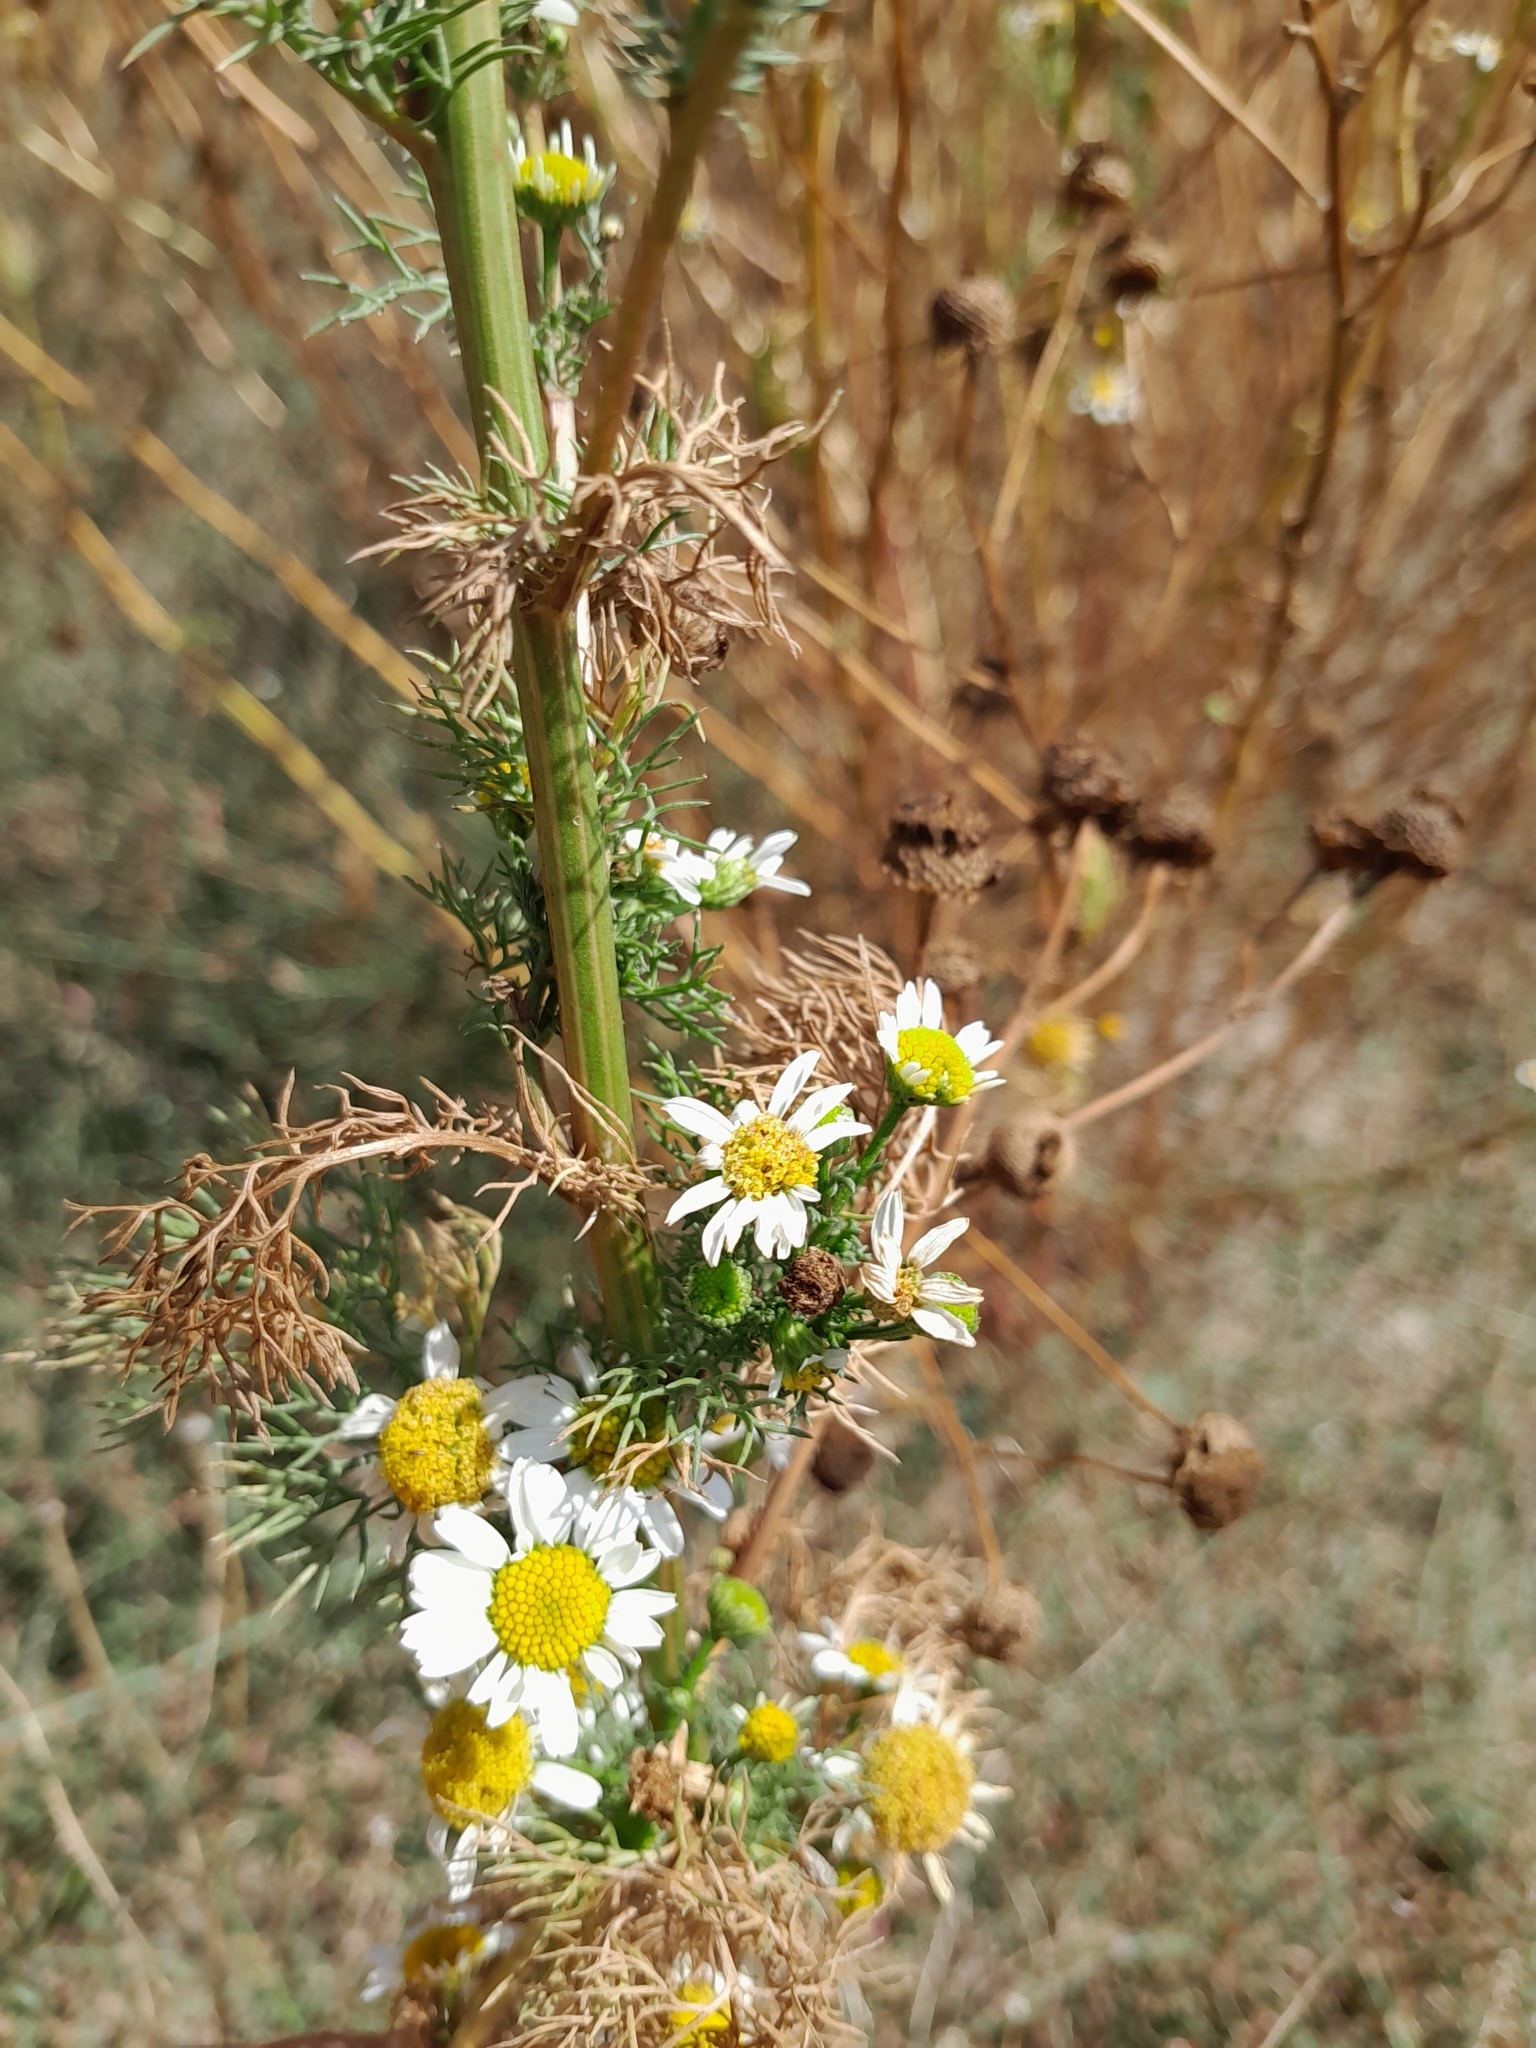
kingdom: Plantae
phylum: Tracheophyta
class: Magnoliopsida
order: Asterales
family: Asteraceae
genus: Tripleurospermum
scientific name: Tripleurospermum inodorum
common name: Scentless mayweed
